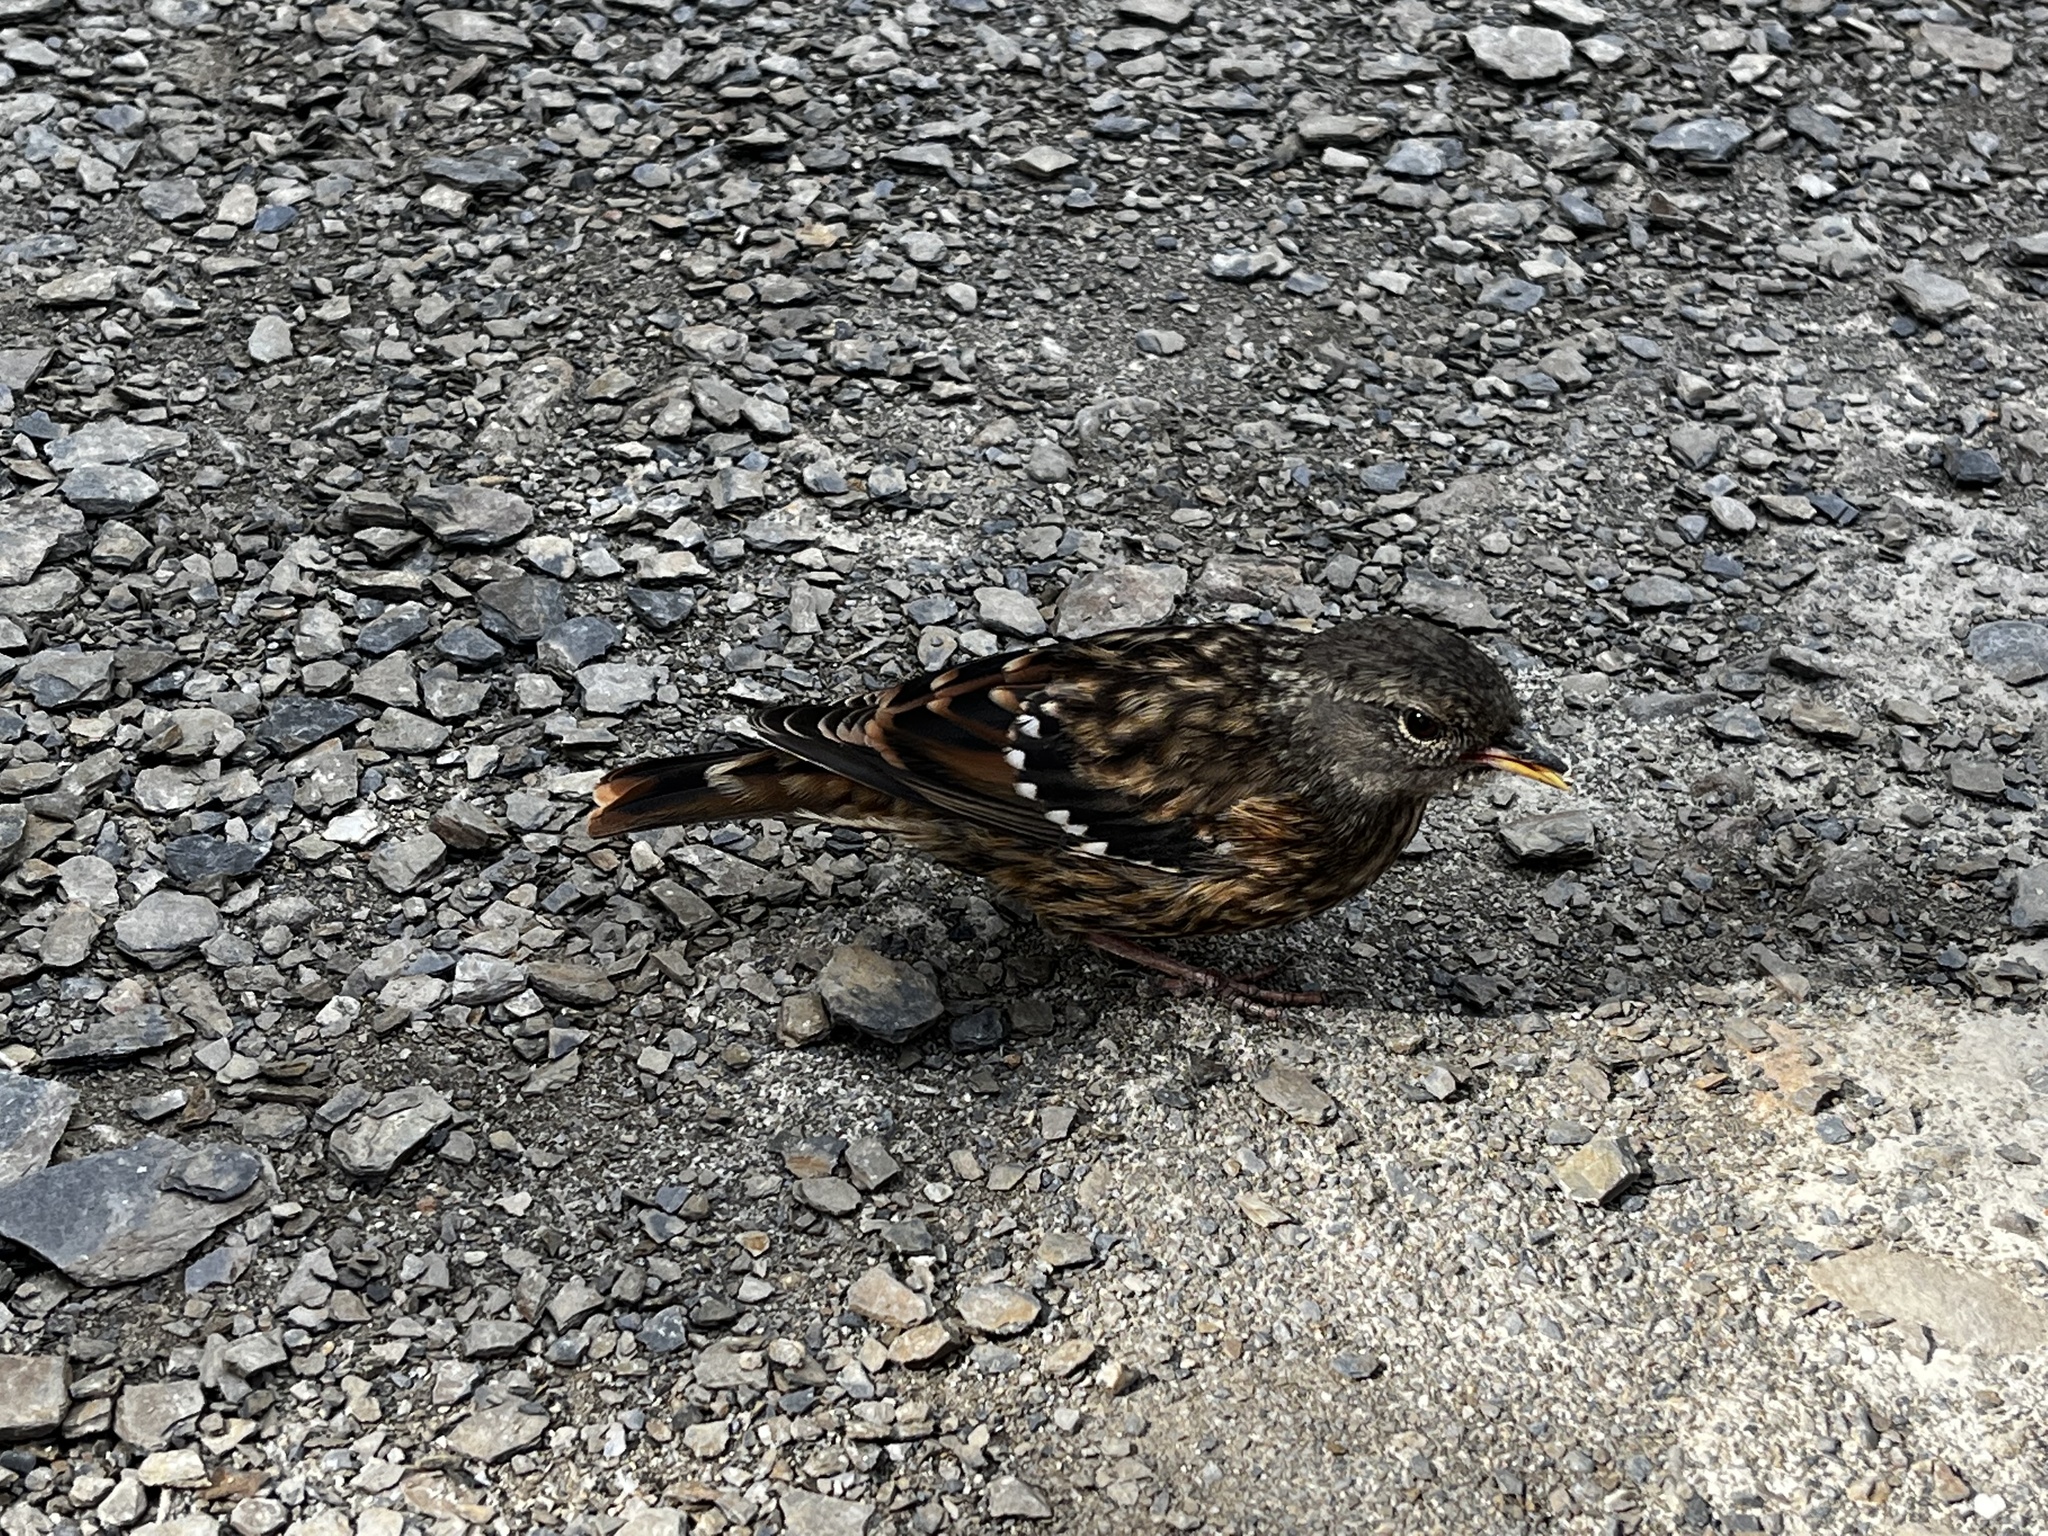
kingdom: Animalia
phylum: Chordata
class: Aves
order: Passeriformes
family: Prunellidae
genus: Prunella
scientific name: Prunella collaris
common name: Alpine accentor
